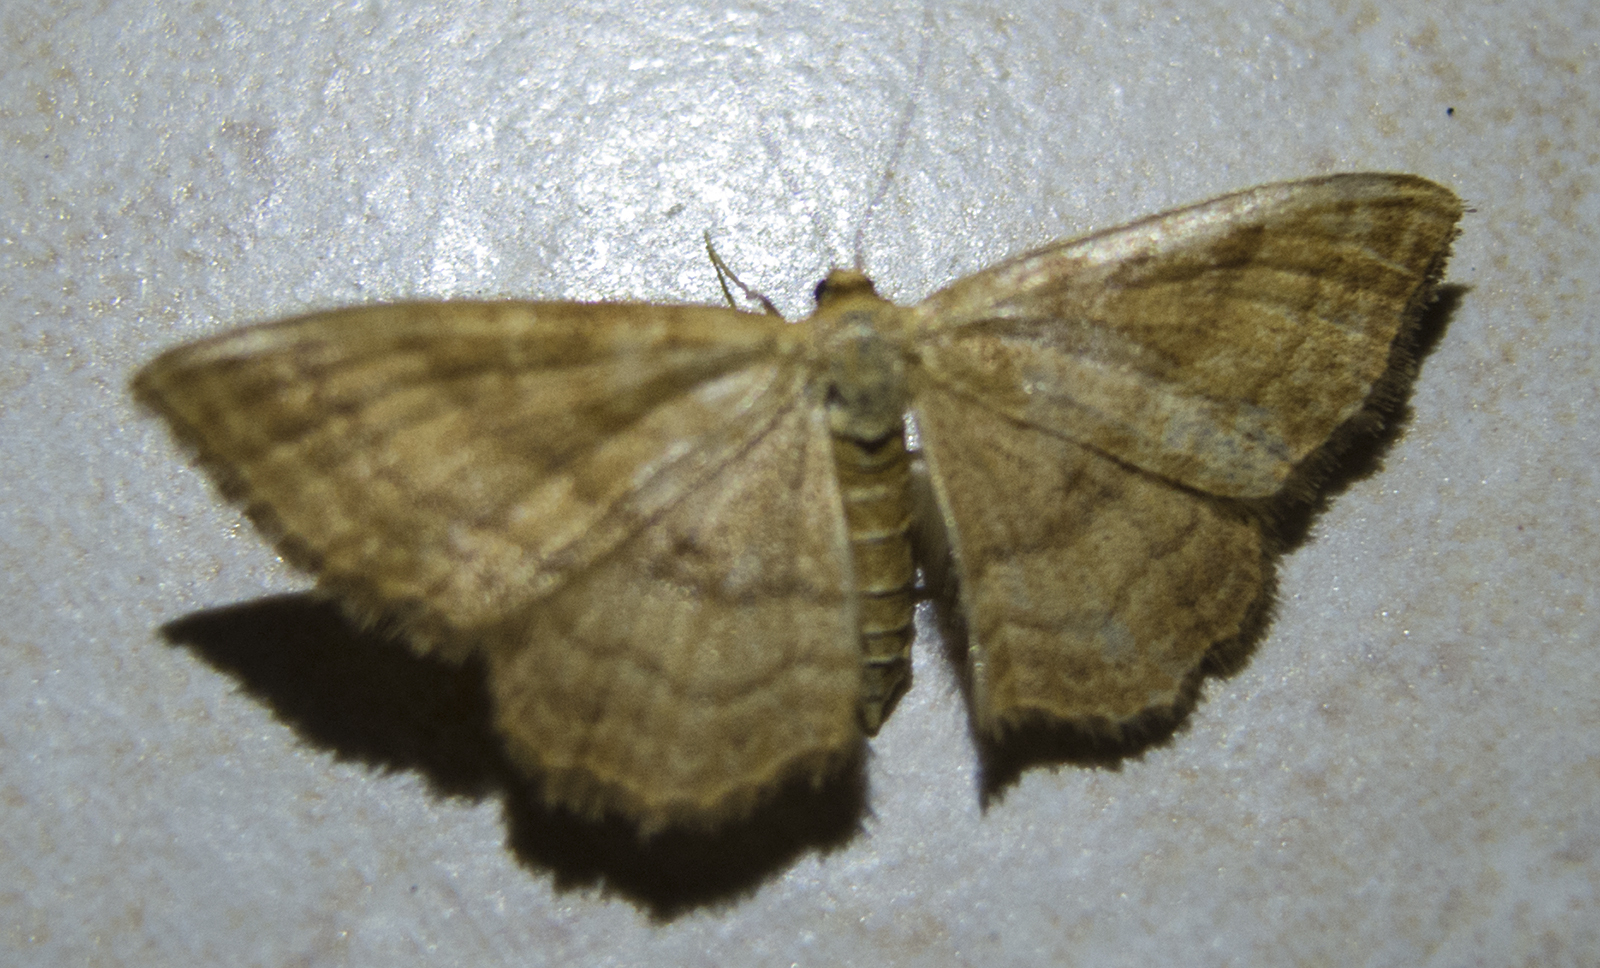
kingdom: Animalia
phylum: Arthropoda
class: Insecta
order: Lepidoptera
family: Geometridae
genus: Idaea
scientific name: Idaea ochrata
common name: Bright wave
